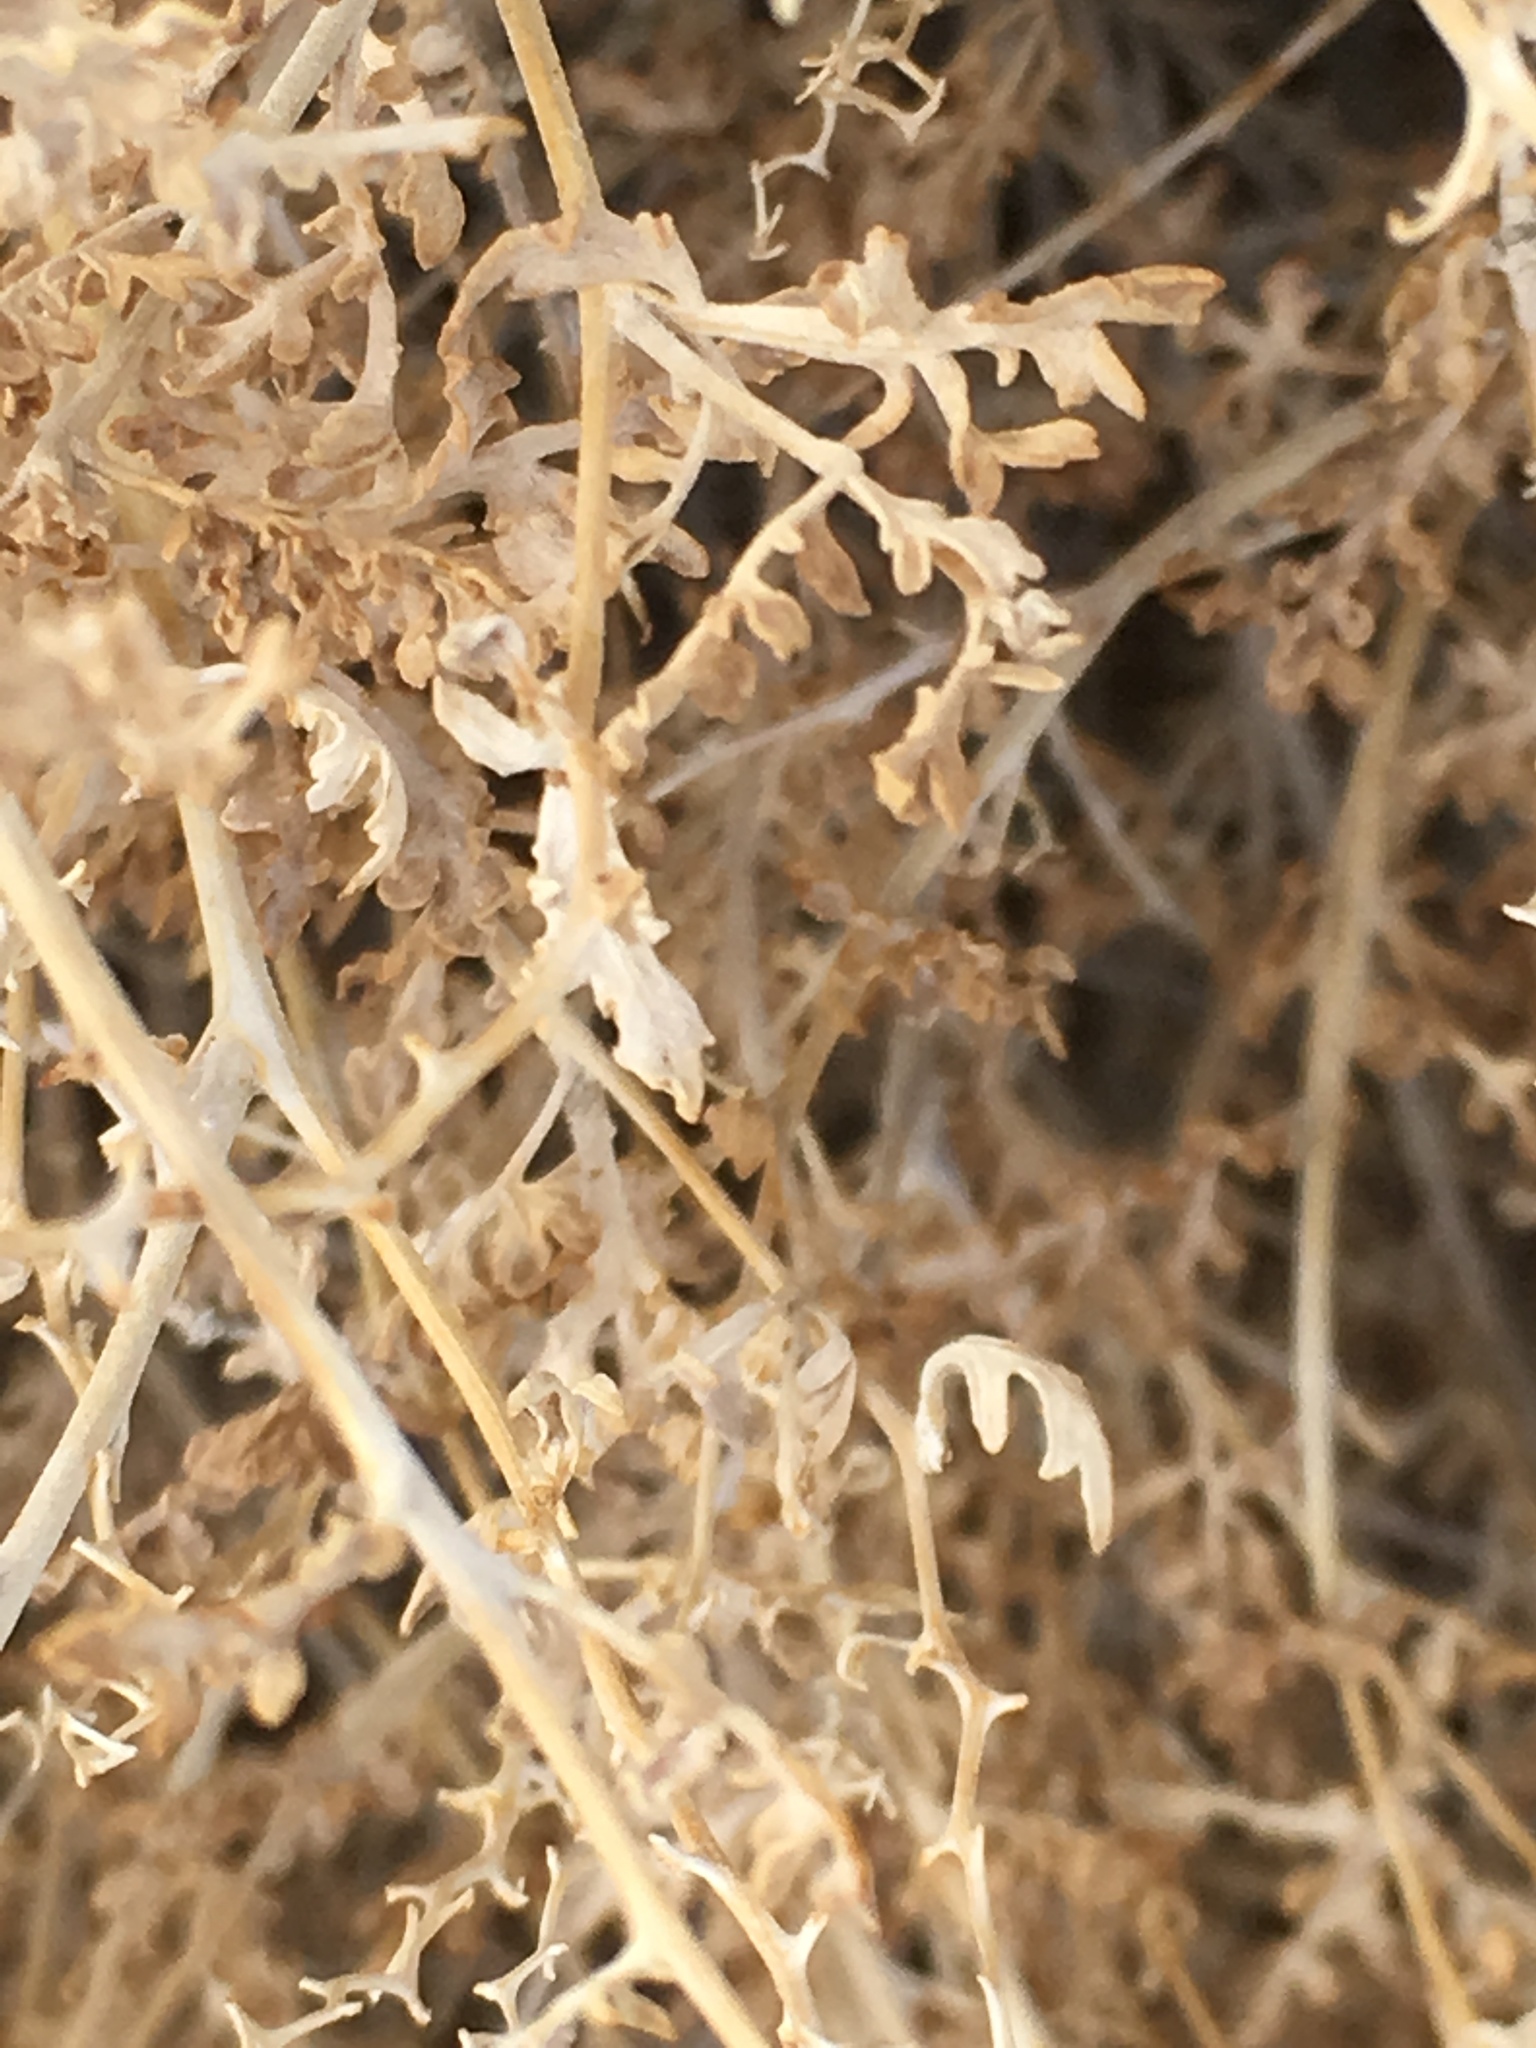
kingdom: Plantae
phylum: Tracheophyta
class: Magnoliopsida
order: Asterales
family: Asteraceae
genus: Ambrosia
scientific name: Ambrosia dumosa
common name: Bur-sage
